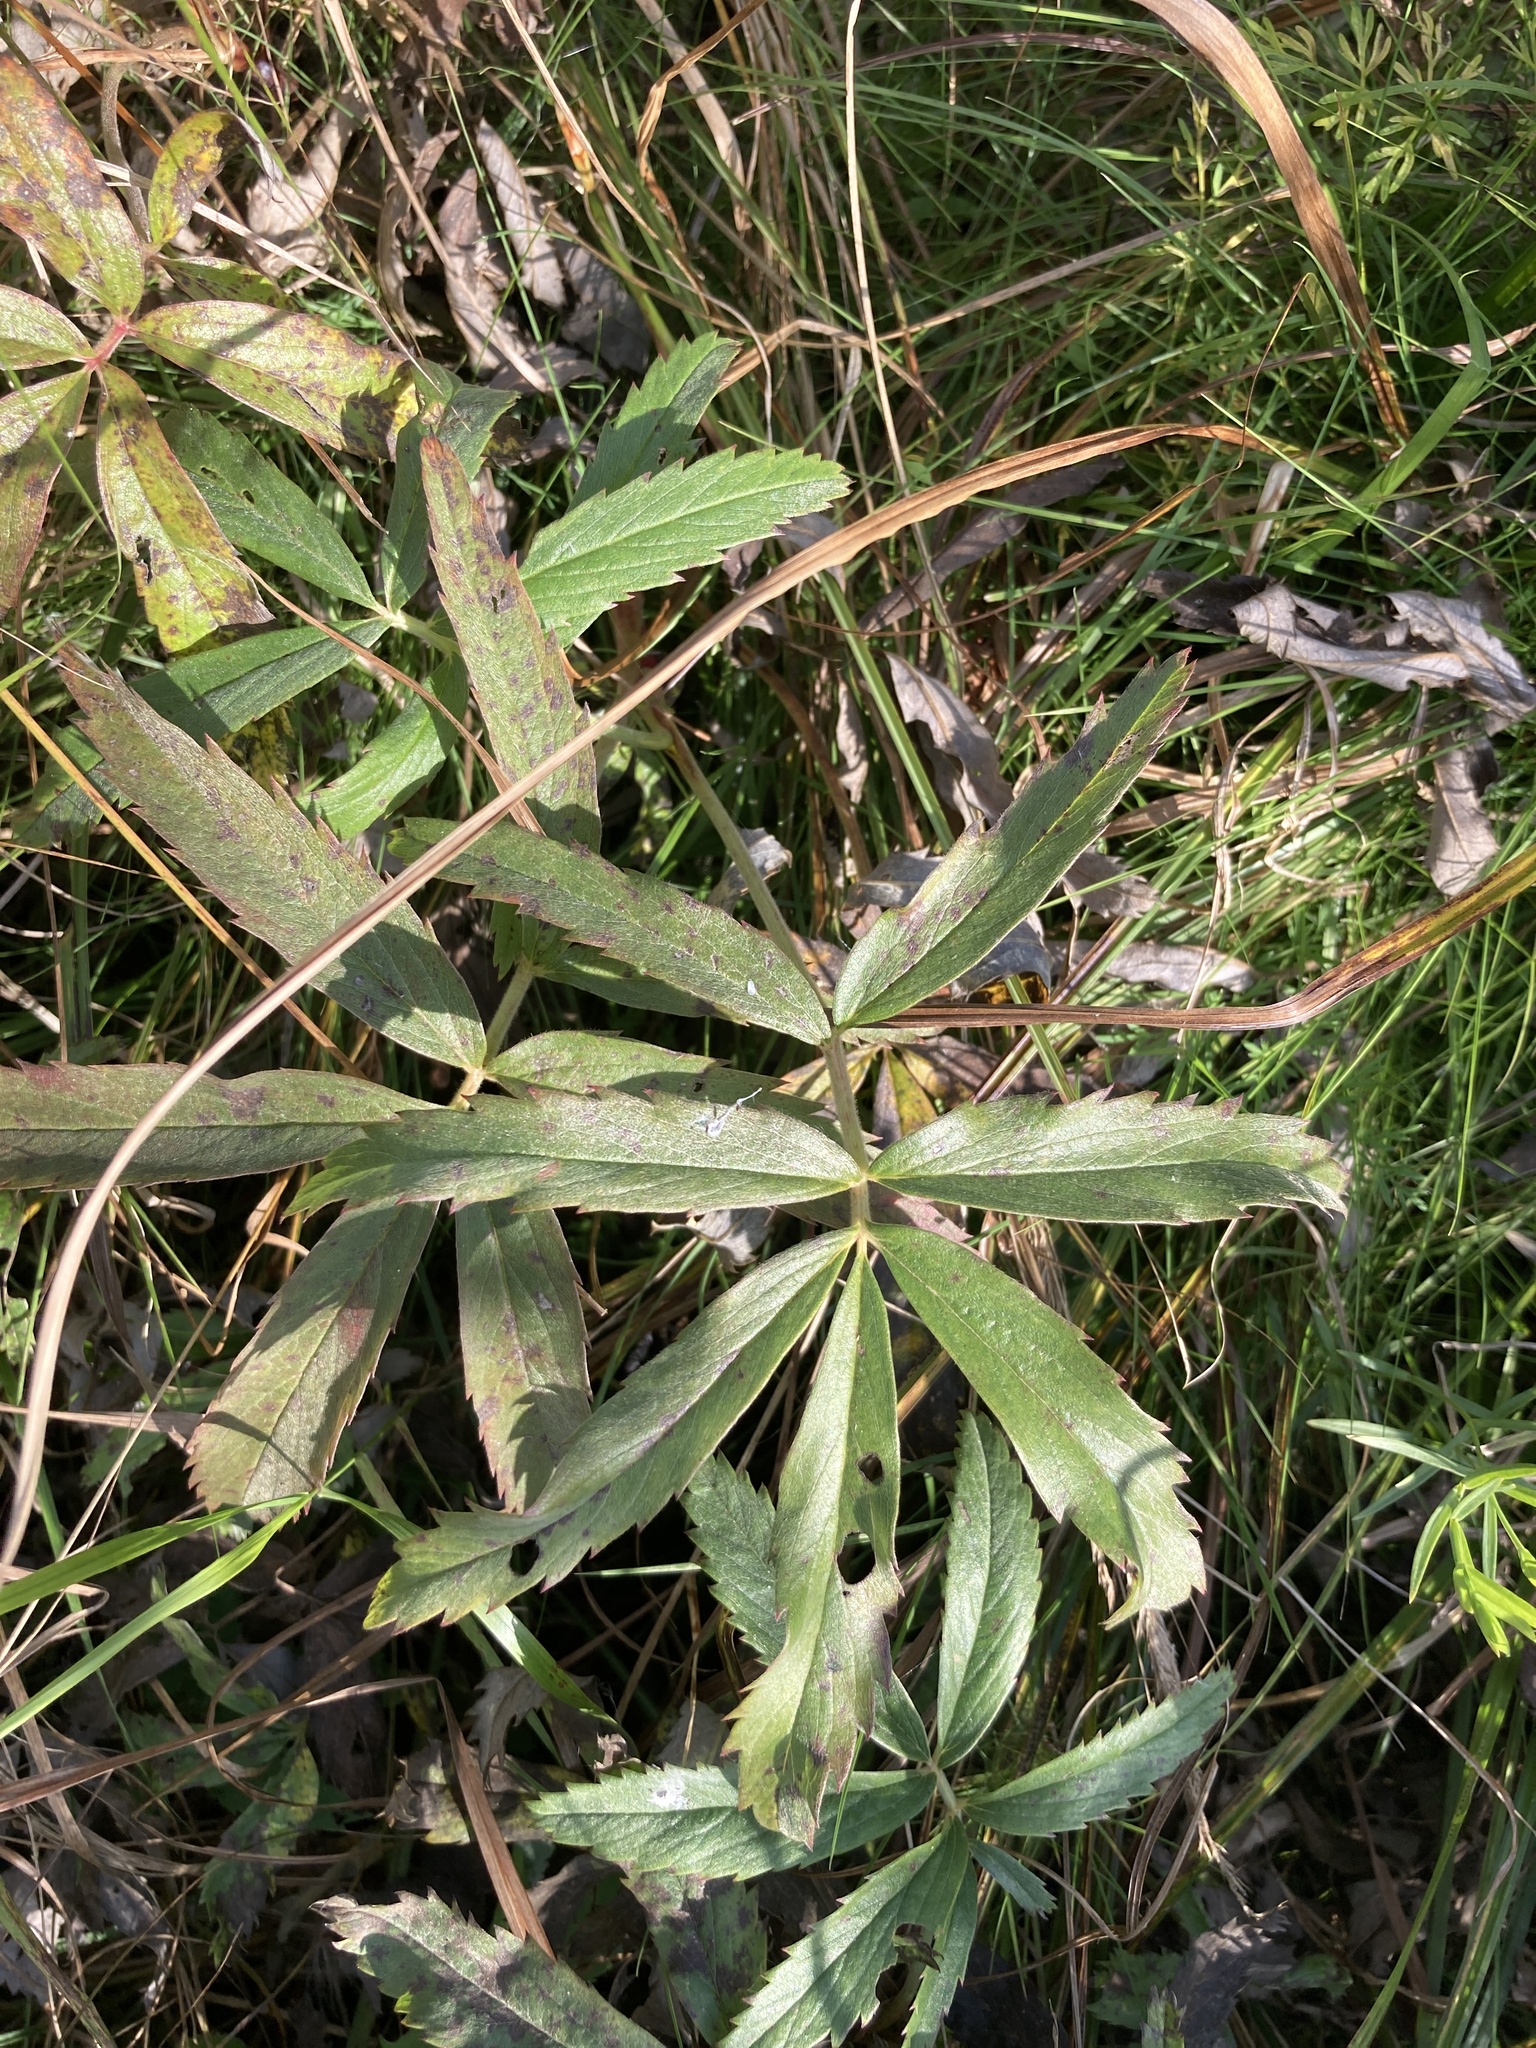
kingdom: Plantae
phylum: Tracheophyta
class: Magnoliopsida
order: Rosales
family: Rosaceae
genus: Comarum
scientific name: Comarum palustre
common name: Marsh cinquefoil
